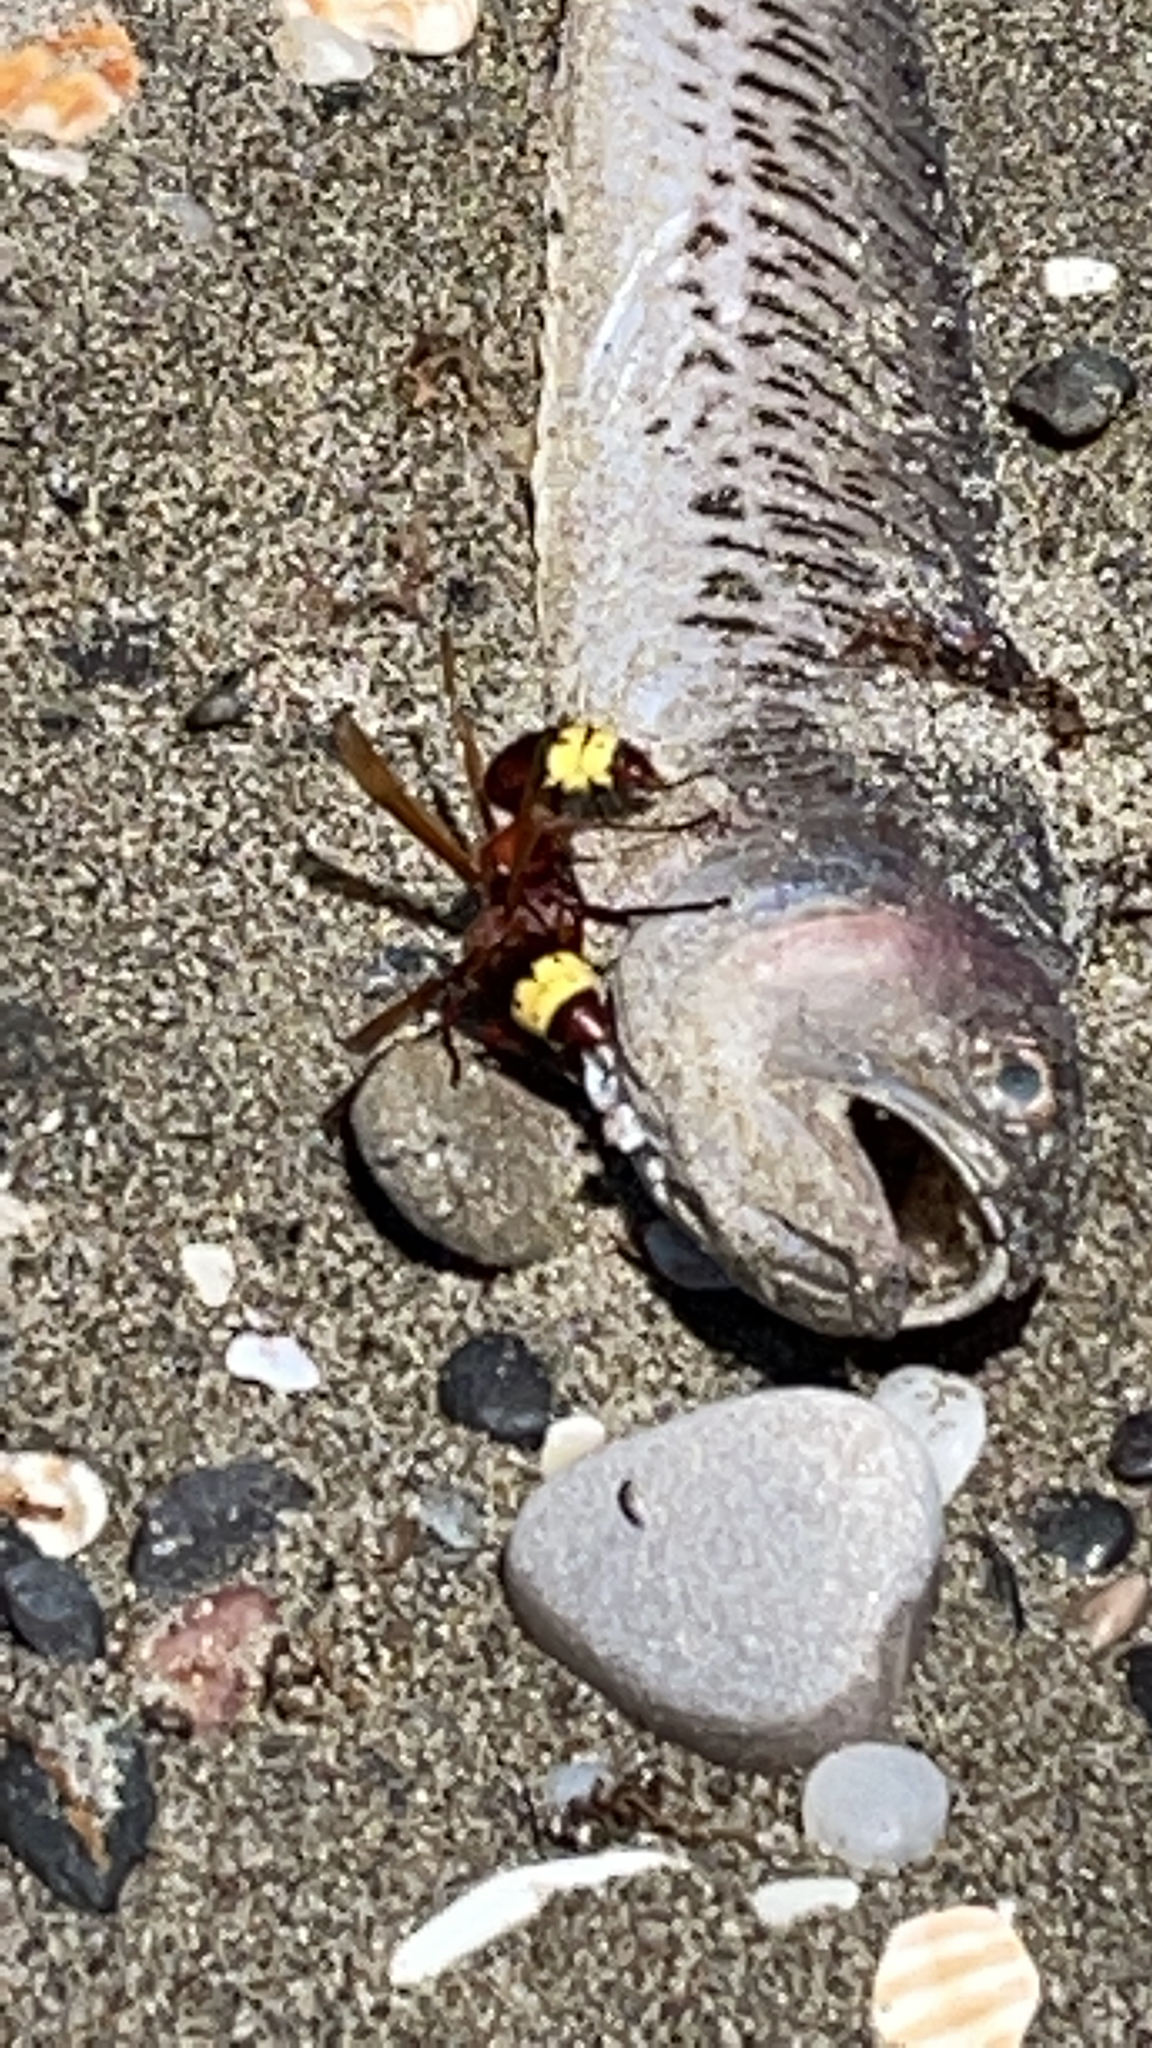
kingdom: Animalia
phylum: Arthropoda
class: Insecta
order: Hymenoptera
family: Vespidae
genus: Vespa
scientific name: Vespa orientalis
